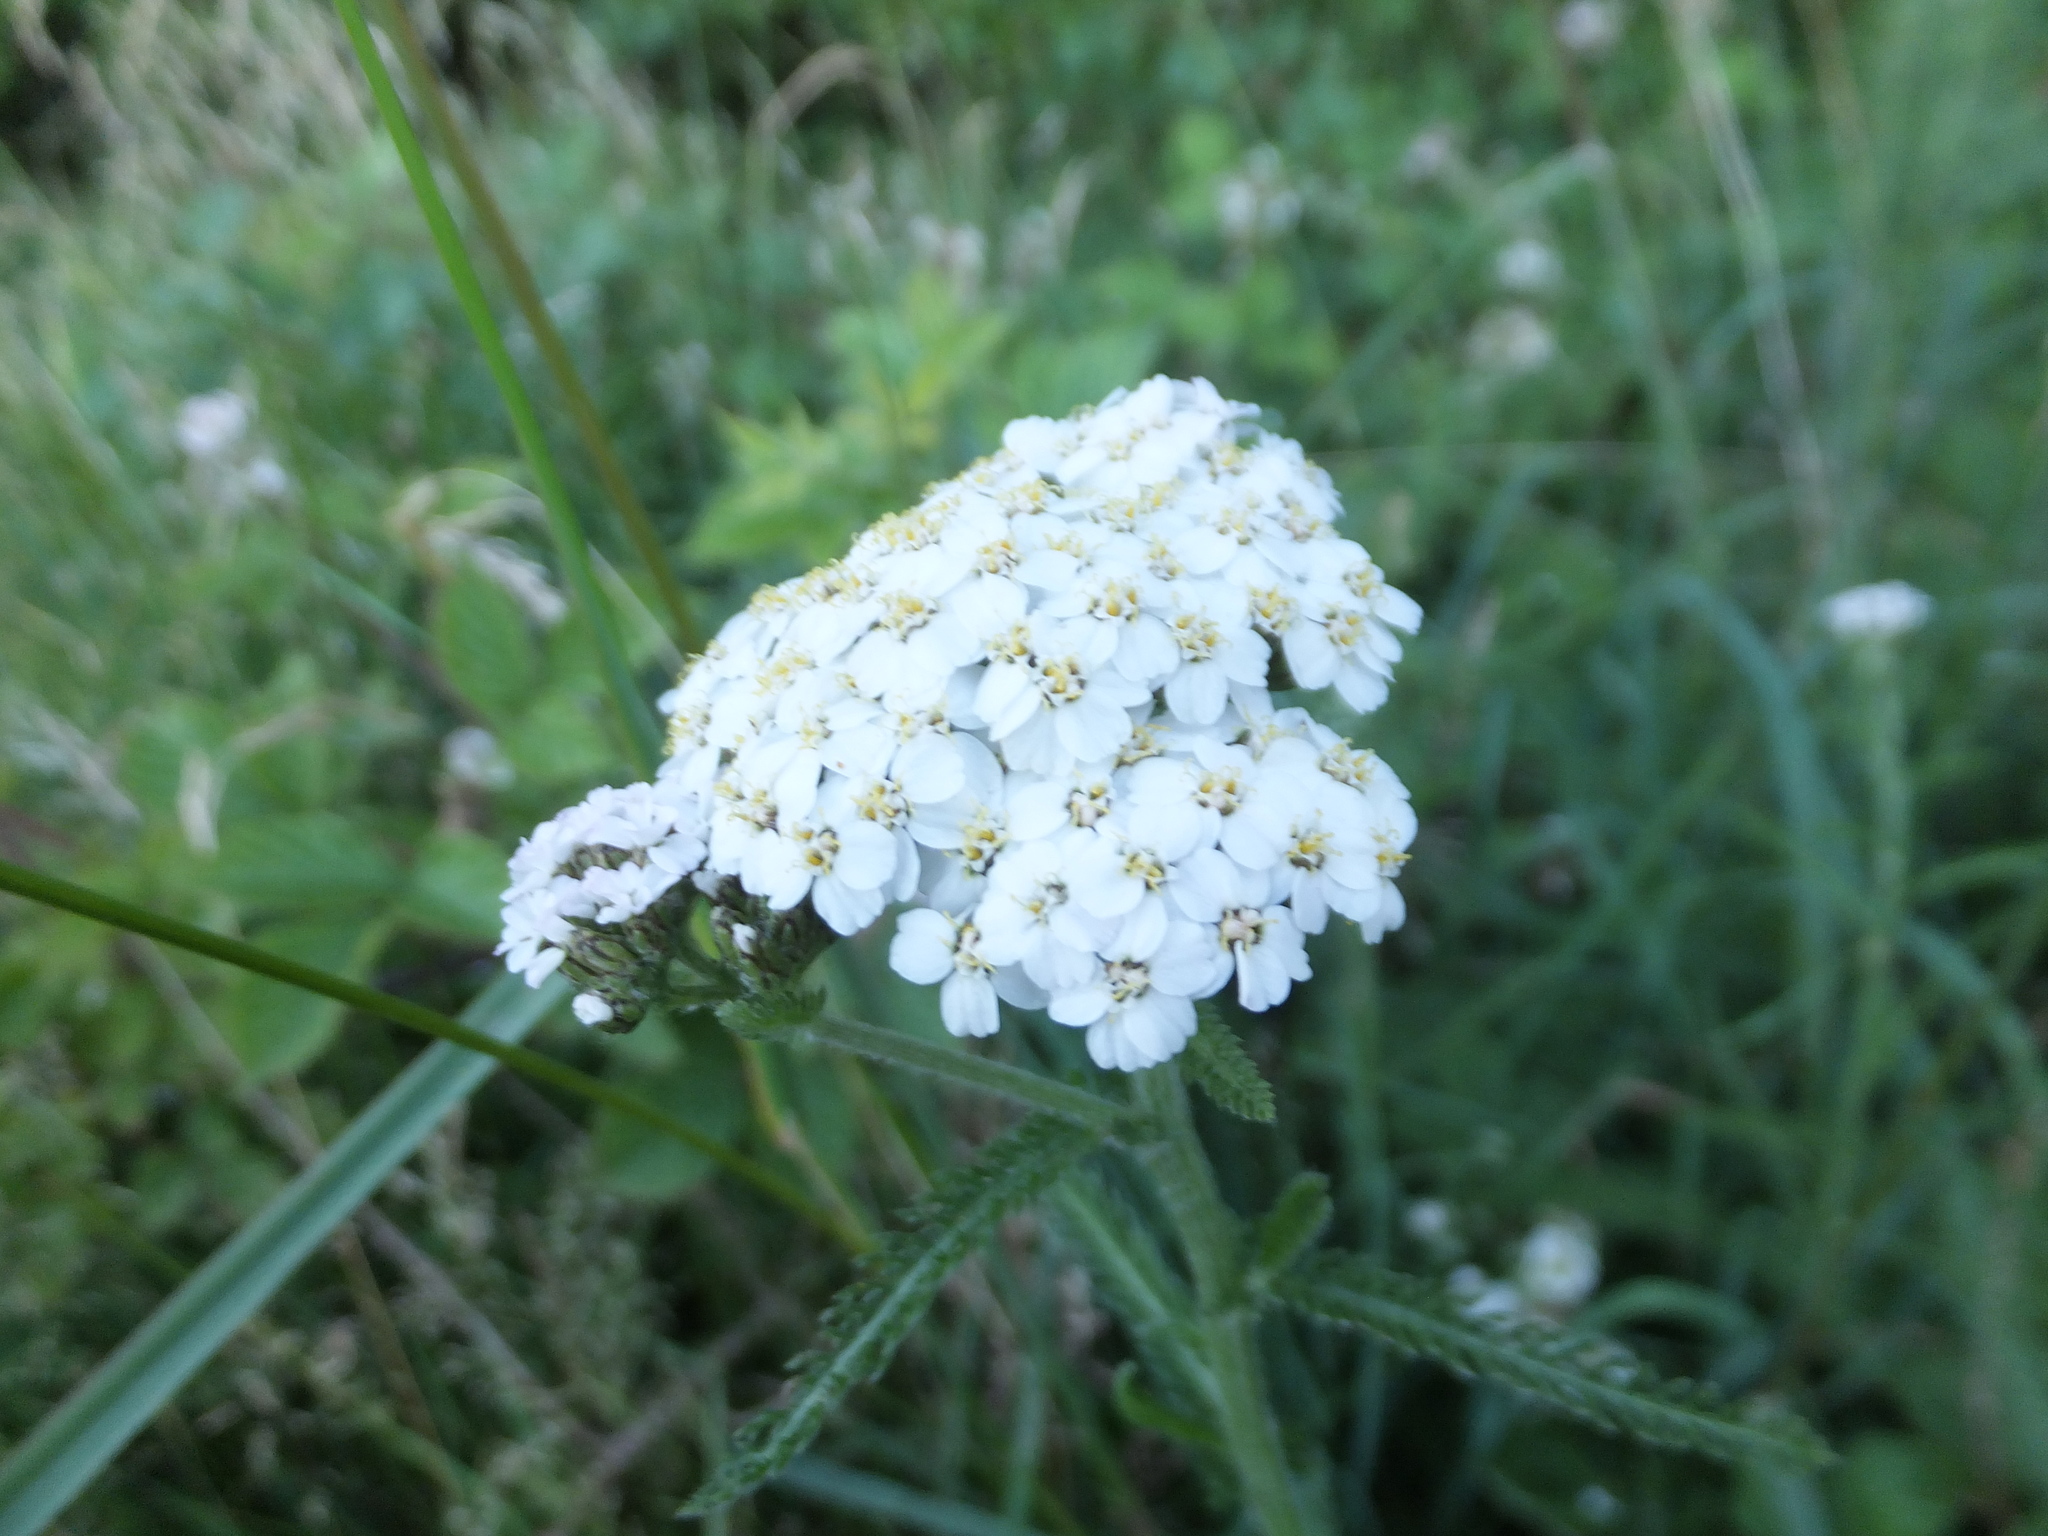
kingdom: Plantae
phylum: Tracheophyta
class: Magnoliopsida
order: Asterales
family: Asteraceae
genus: Achillea
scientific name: Achillea millefolium
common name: Yarrow
